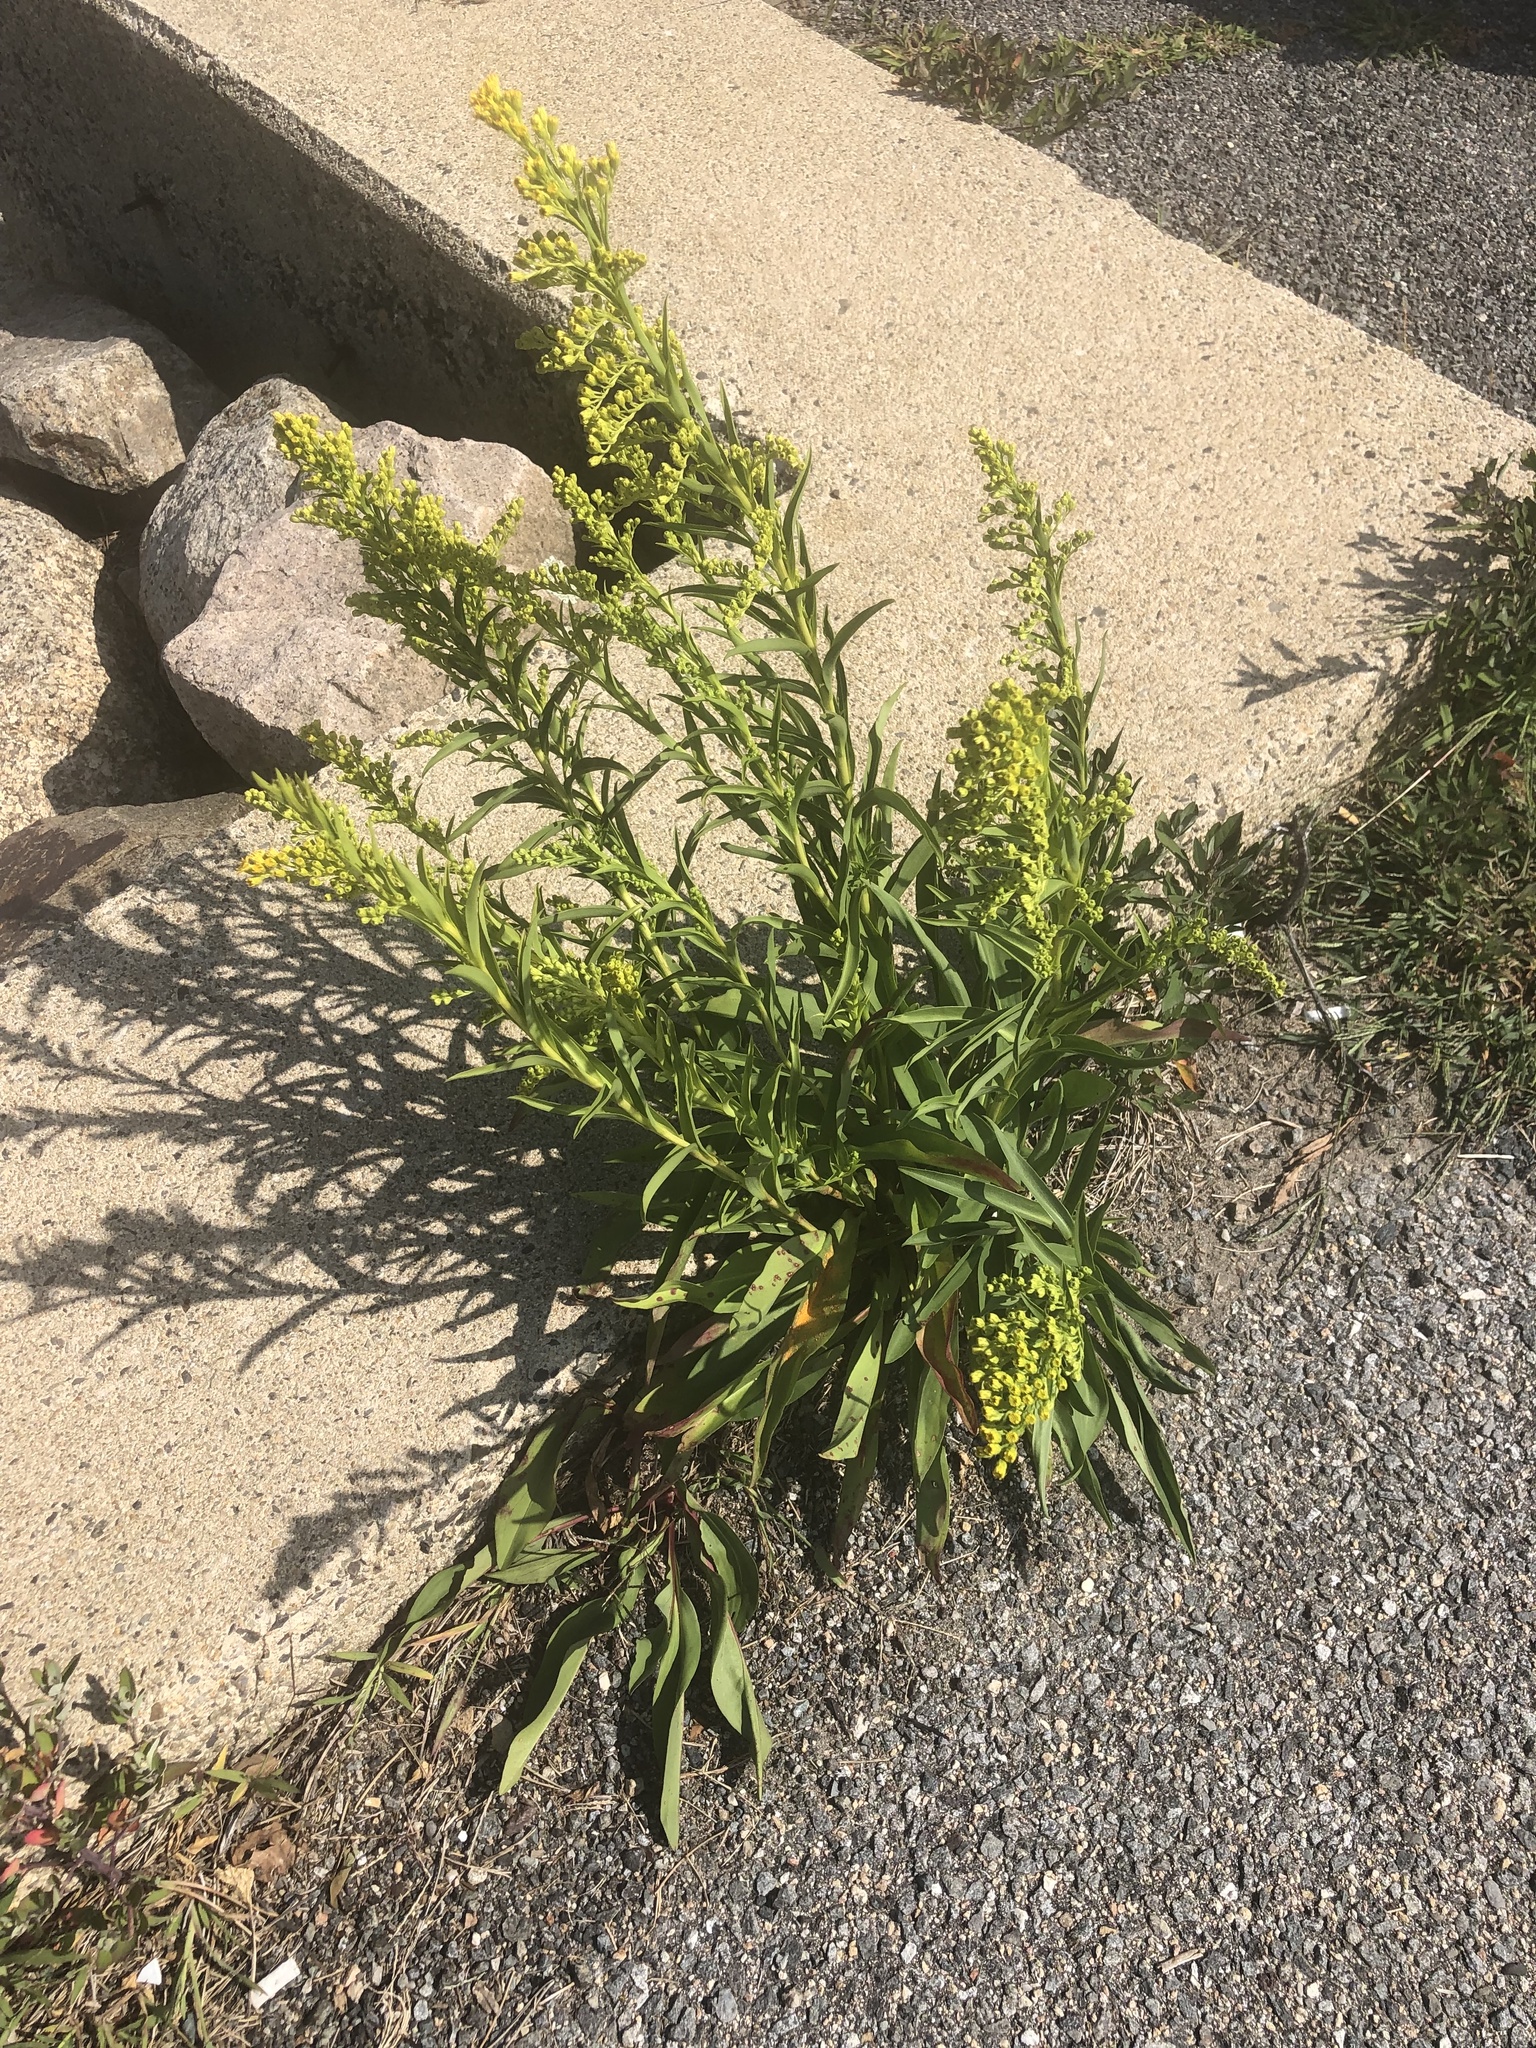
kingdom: Plantae
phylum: Tracheophyta
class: Magnoliopsida
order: Asterales
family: Asteraceae
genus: Solidago
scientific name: Solidago sempervirens
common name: Salt-marsh goldenrod
